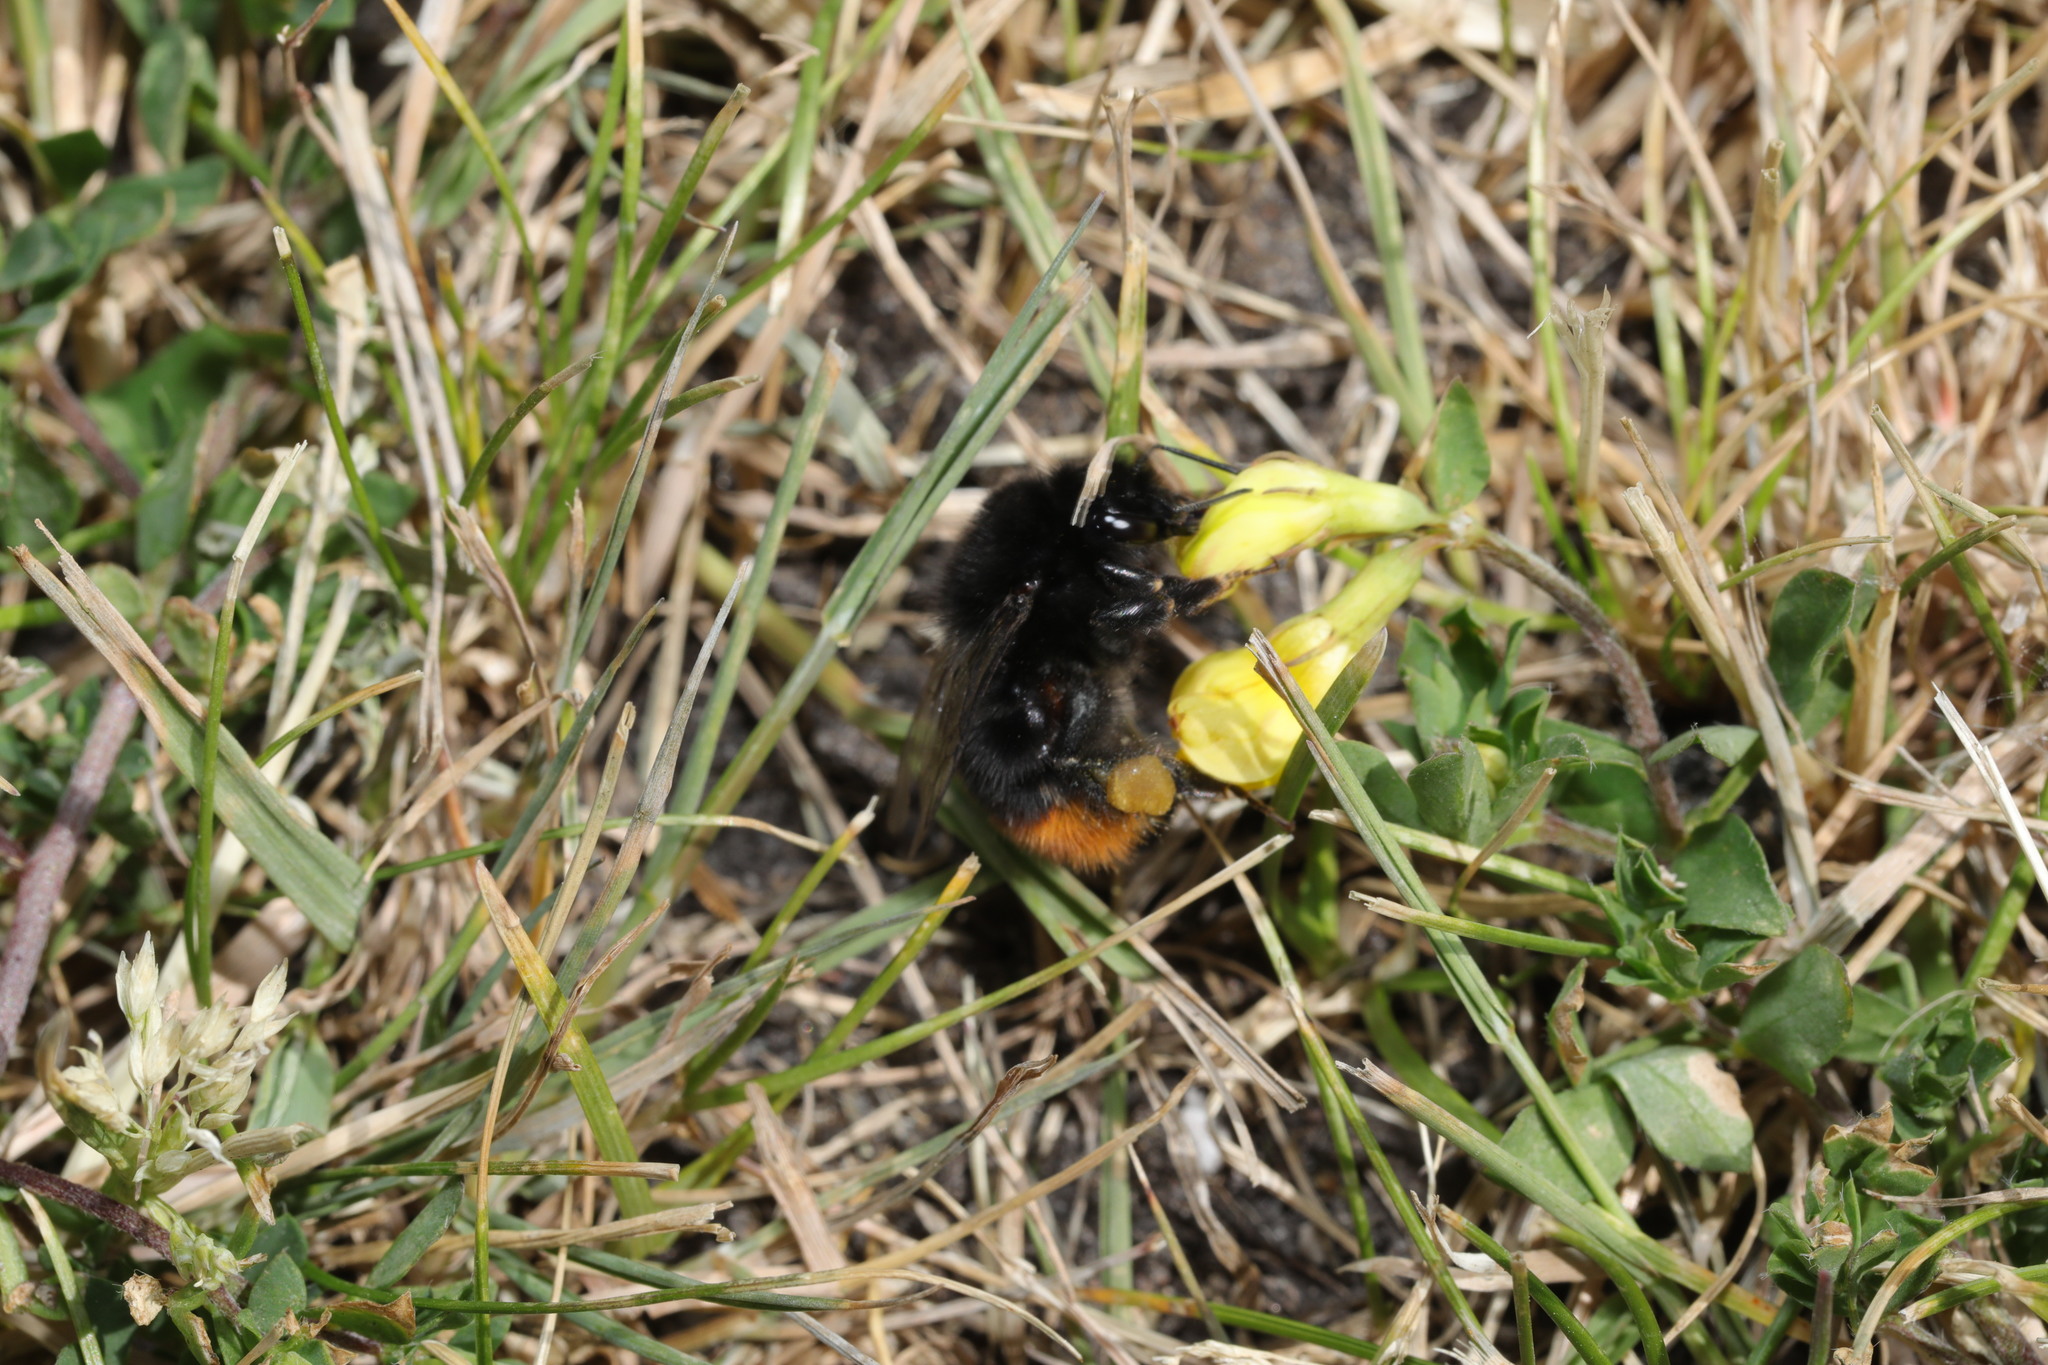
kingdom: Animalia
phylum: Arthropoda
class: Insecta
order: Hymenoptera
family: Apidae
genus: Bombus
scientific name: Bombus lapidarius
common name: Large red-tailed humble-bee
